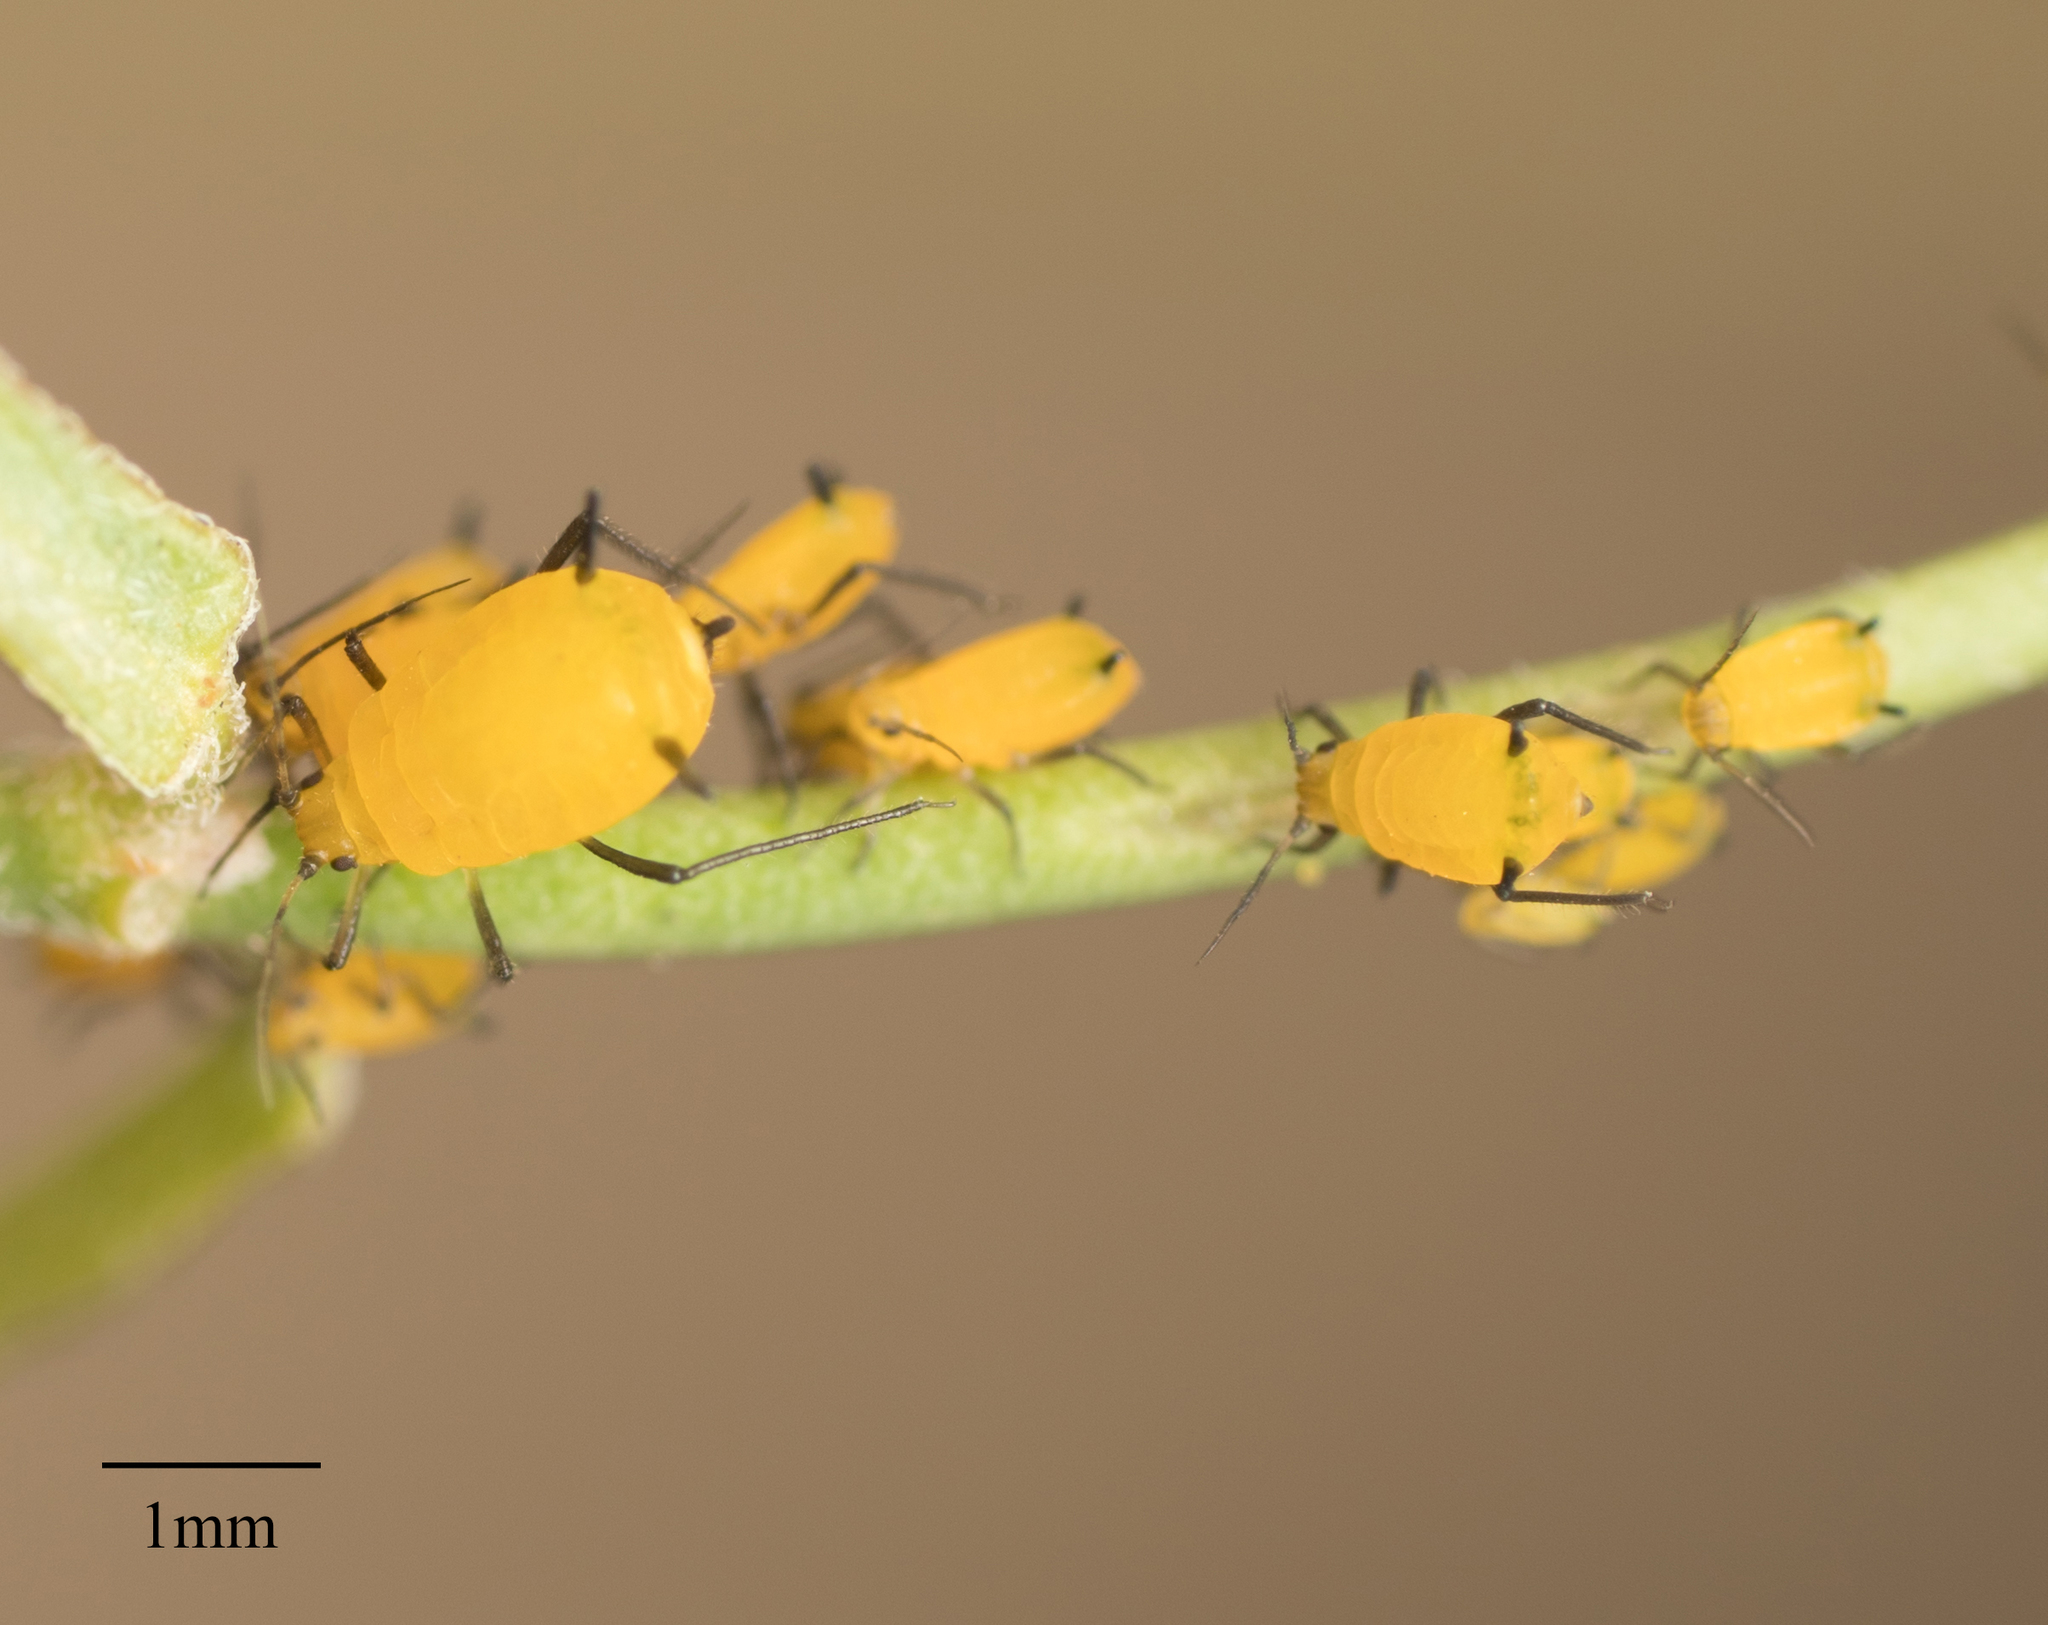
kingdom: Animalia
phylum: Arthropoda
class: Insecta
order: Hemiptera
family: Aphididae
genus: Aphis
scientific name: Aphis nerii
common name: Oleander aphid
